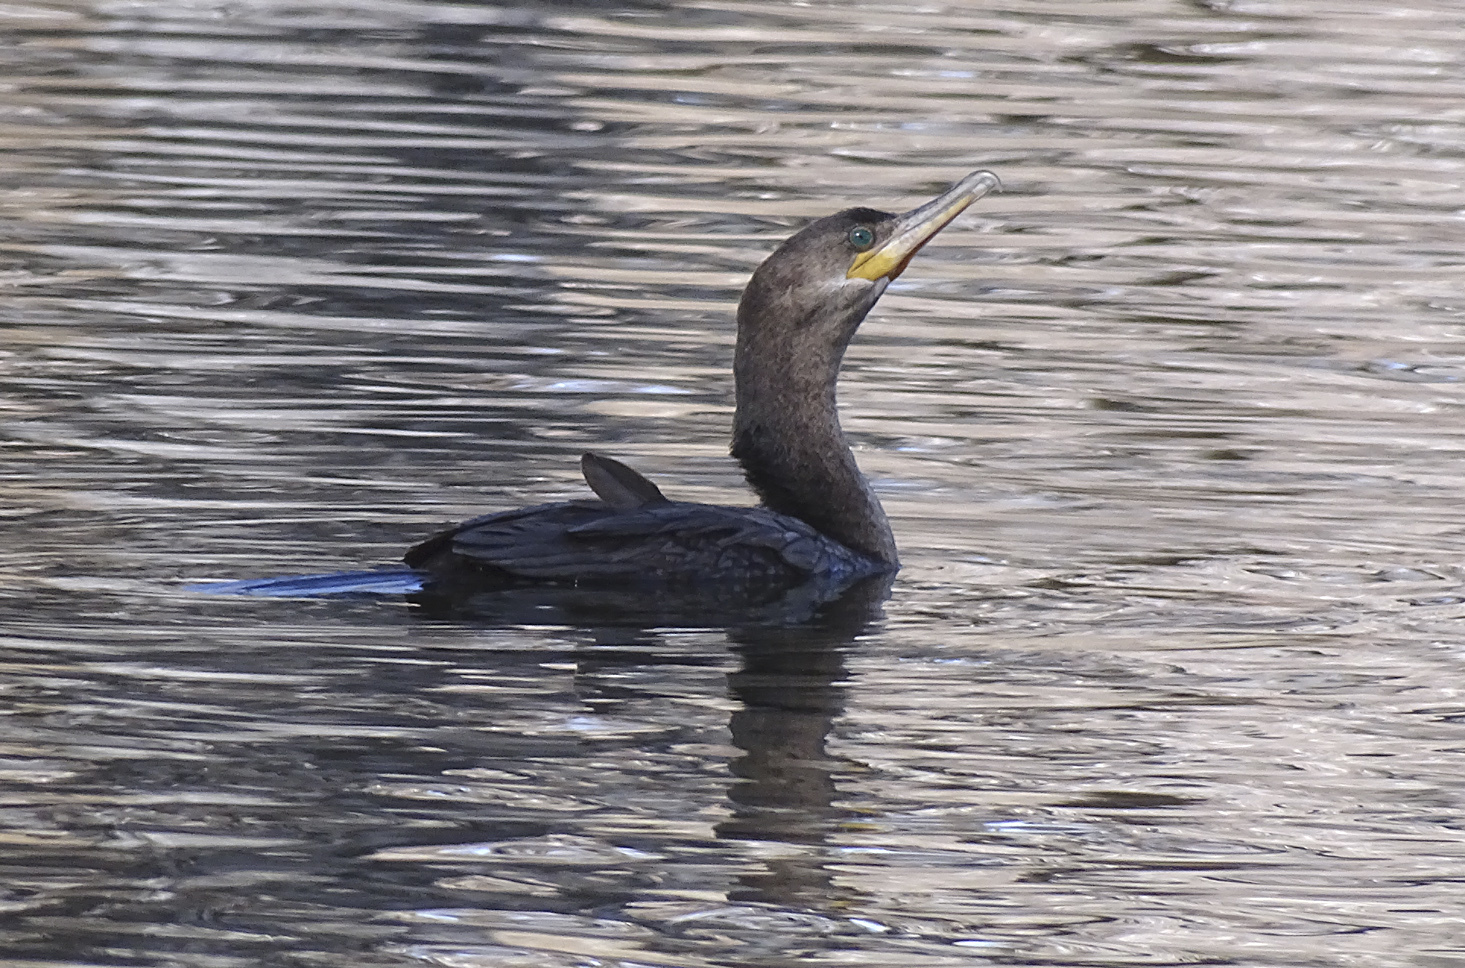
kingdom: Animalia
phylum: Chordata
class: Aves
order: Suliformes
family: Phalacrocoracidae
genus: Phalacrocorax
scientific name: Phalacrocorax brasilianus
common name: Neotropic cormorant
